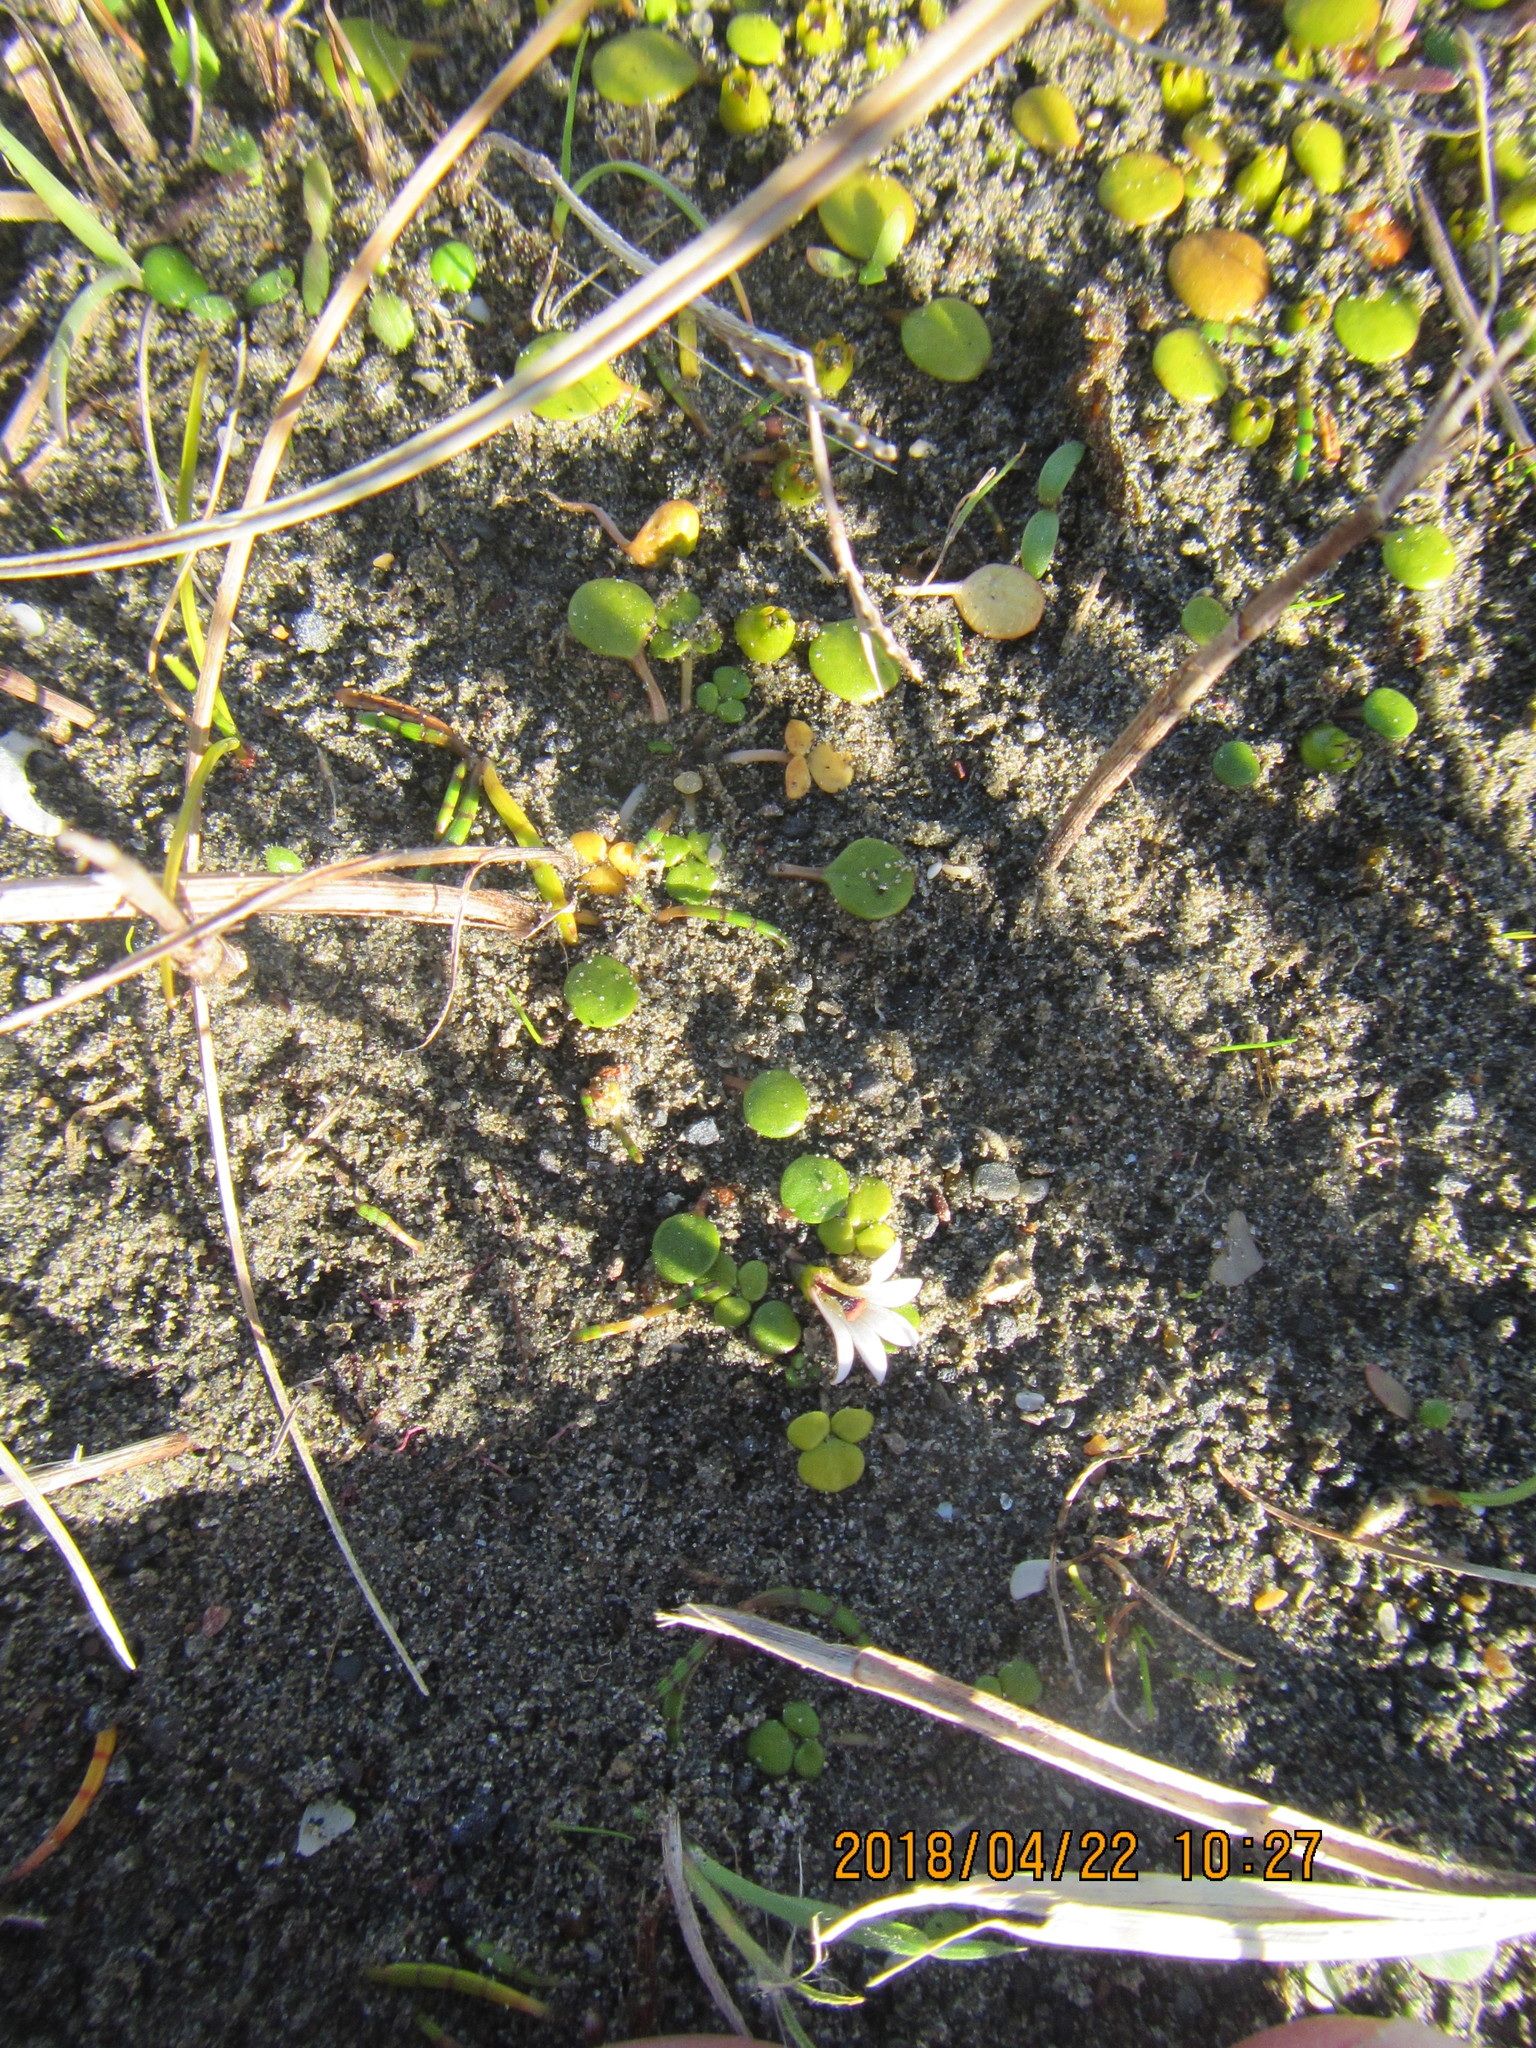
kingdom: Plantae
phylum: Tracheophyta
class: Magnoliopsida
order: Asterales
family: Goodeniaceae
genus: Goodenia
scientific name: Goodenia heenanii
